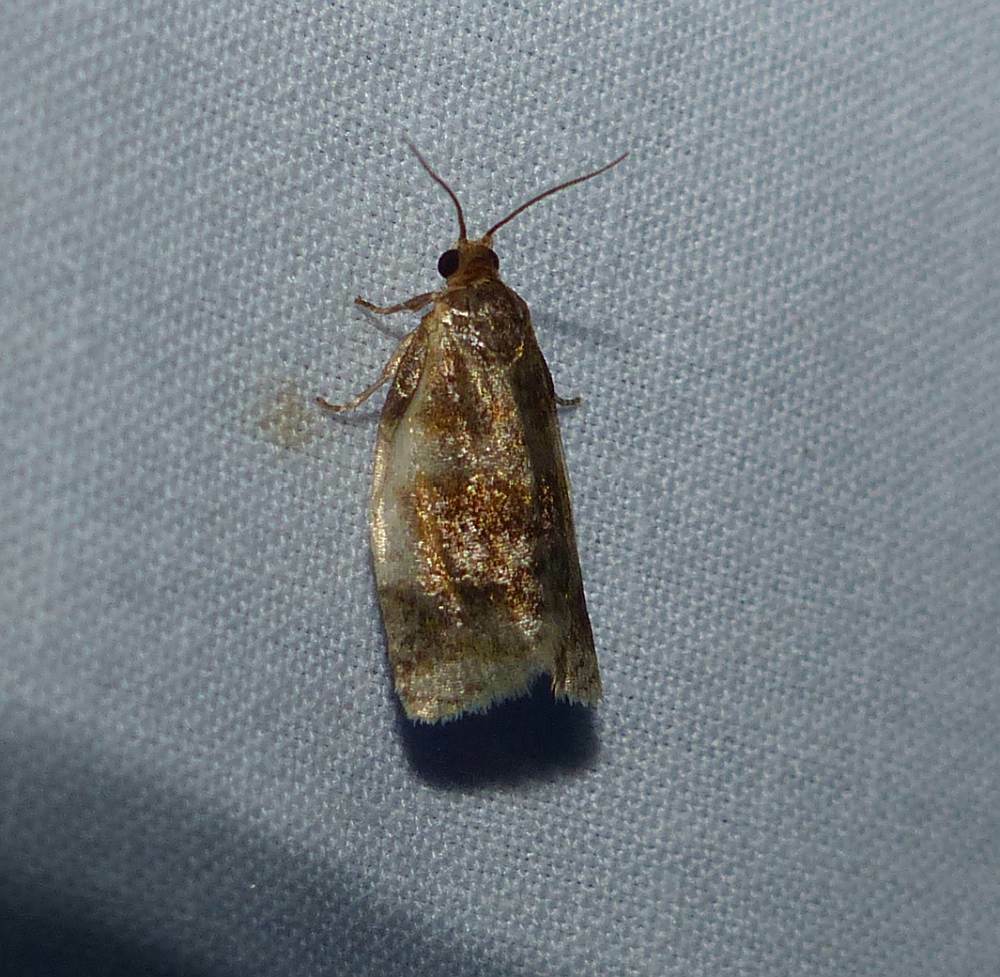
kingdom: Animalia
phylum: Arthropoda
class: Insecta
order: Lepidoptera
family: Tortricidae
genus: Clepsis
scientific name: Clepsis persicana
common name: White triangle tortrix
